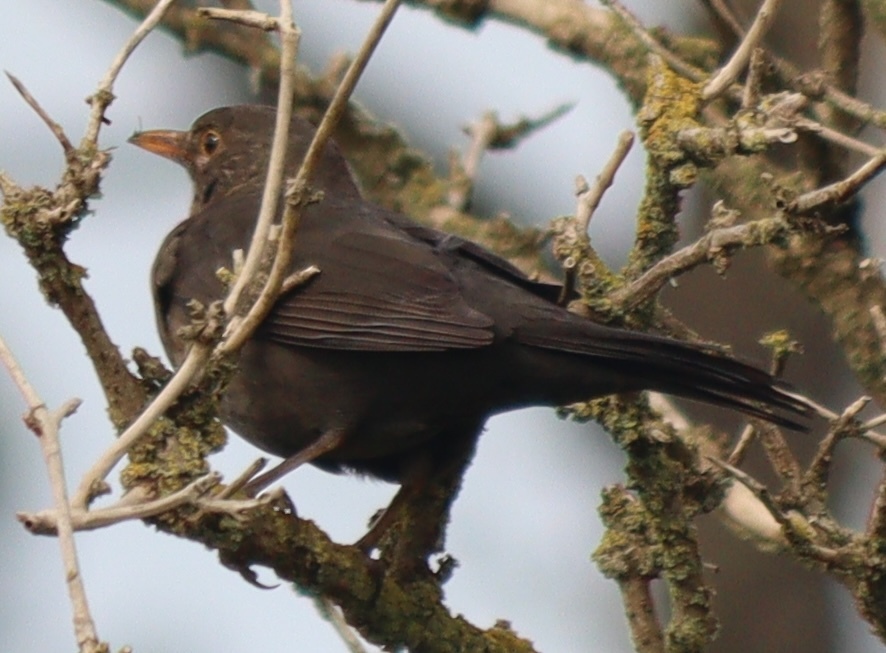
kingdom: Animalia
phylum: Chordata
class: Aves
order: Passeriformes
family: Turdidae
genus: Turdus
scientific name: Turdus merula
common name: Common blackbird
